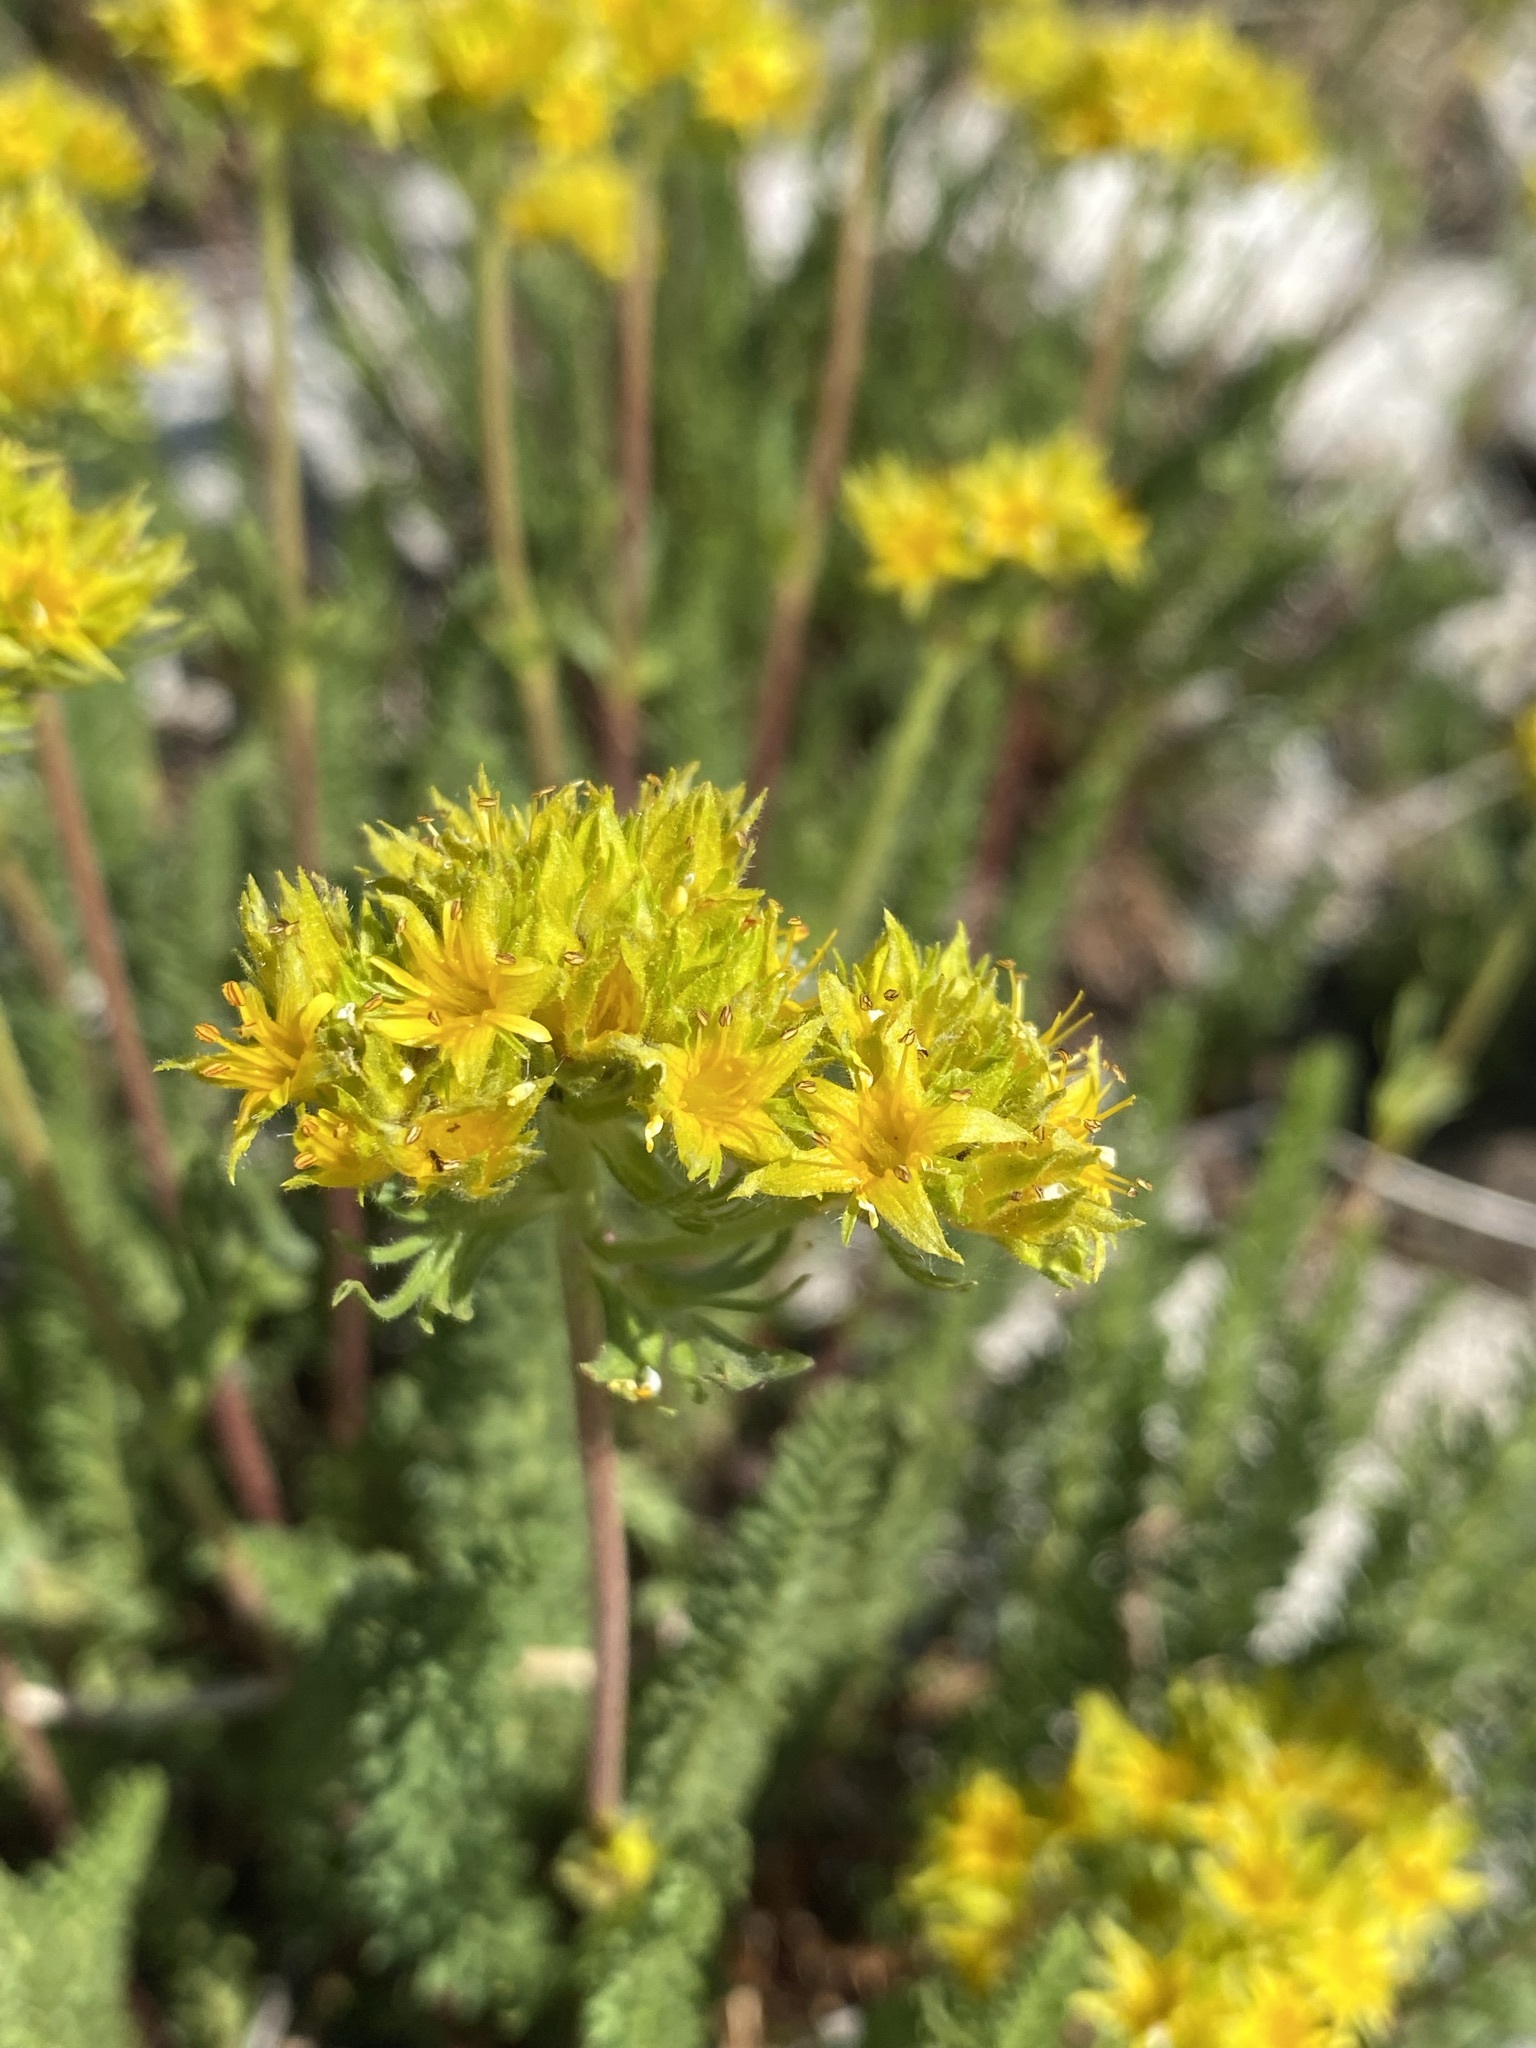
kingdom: Plantae
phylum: Tracheophyta
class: Magnoliopsida
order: Rosales
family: Rosaceae
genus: Potentilla
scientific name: Potentilla gordonii
